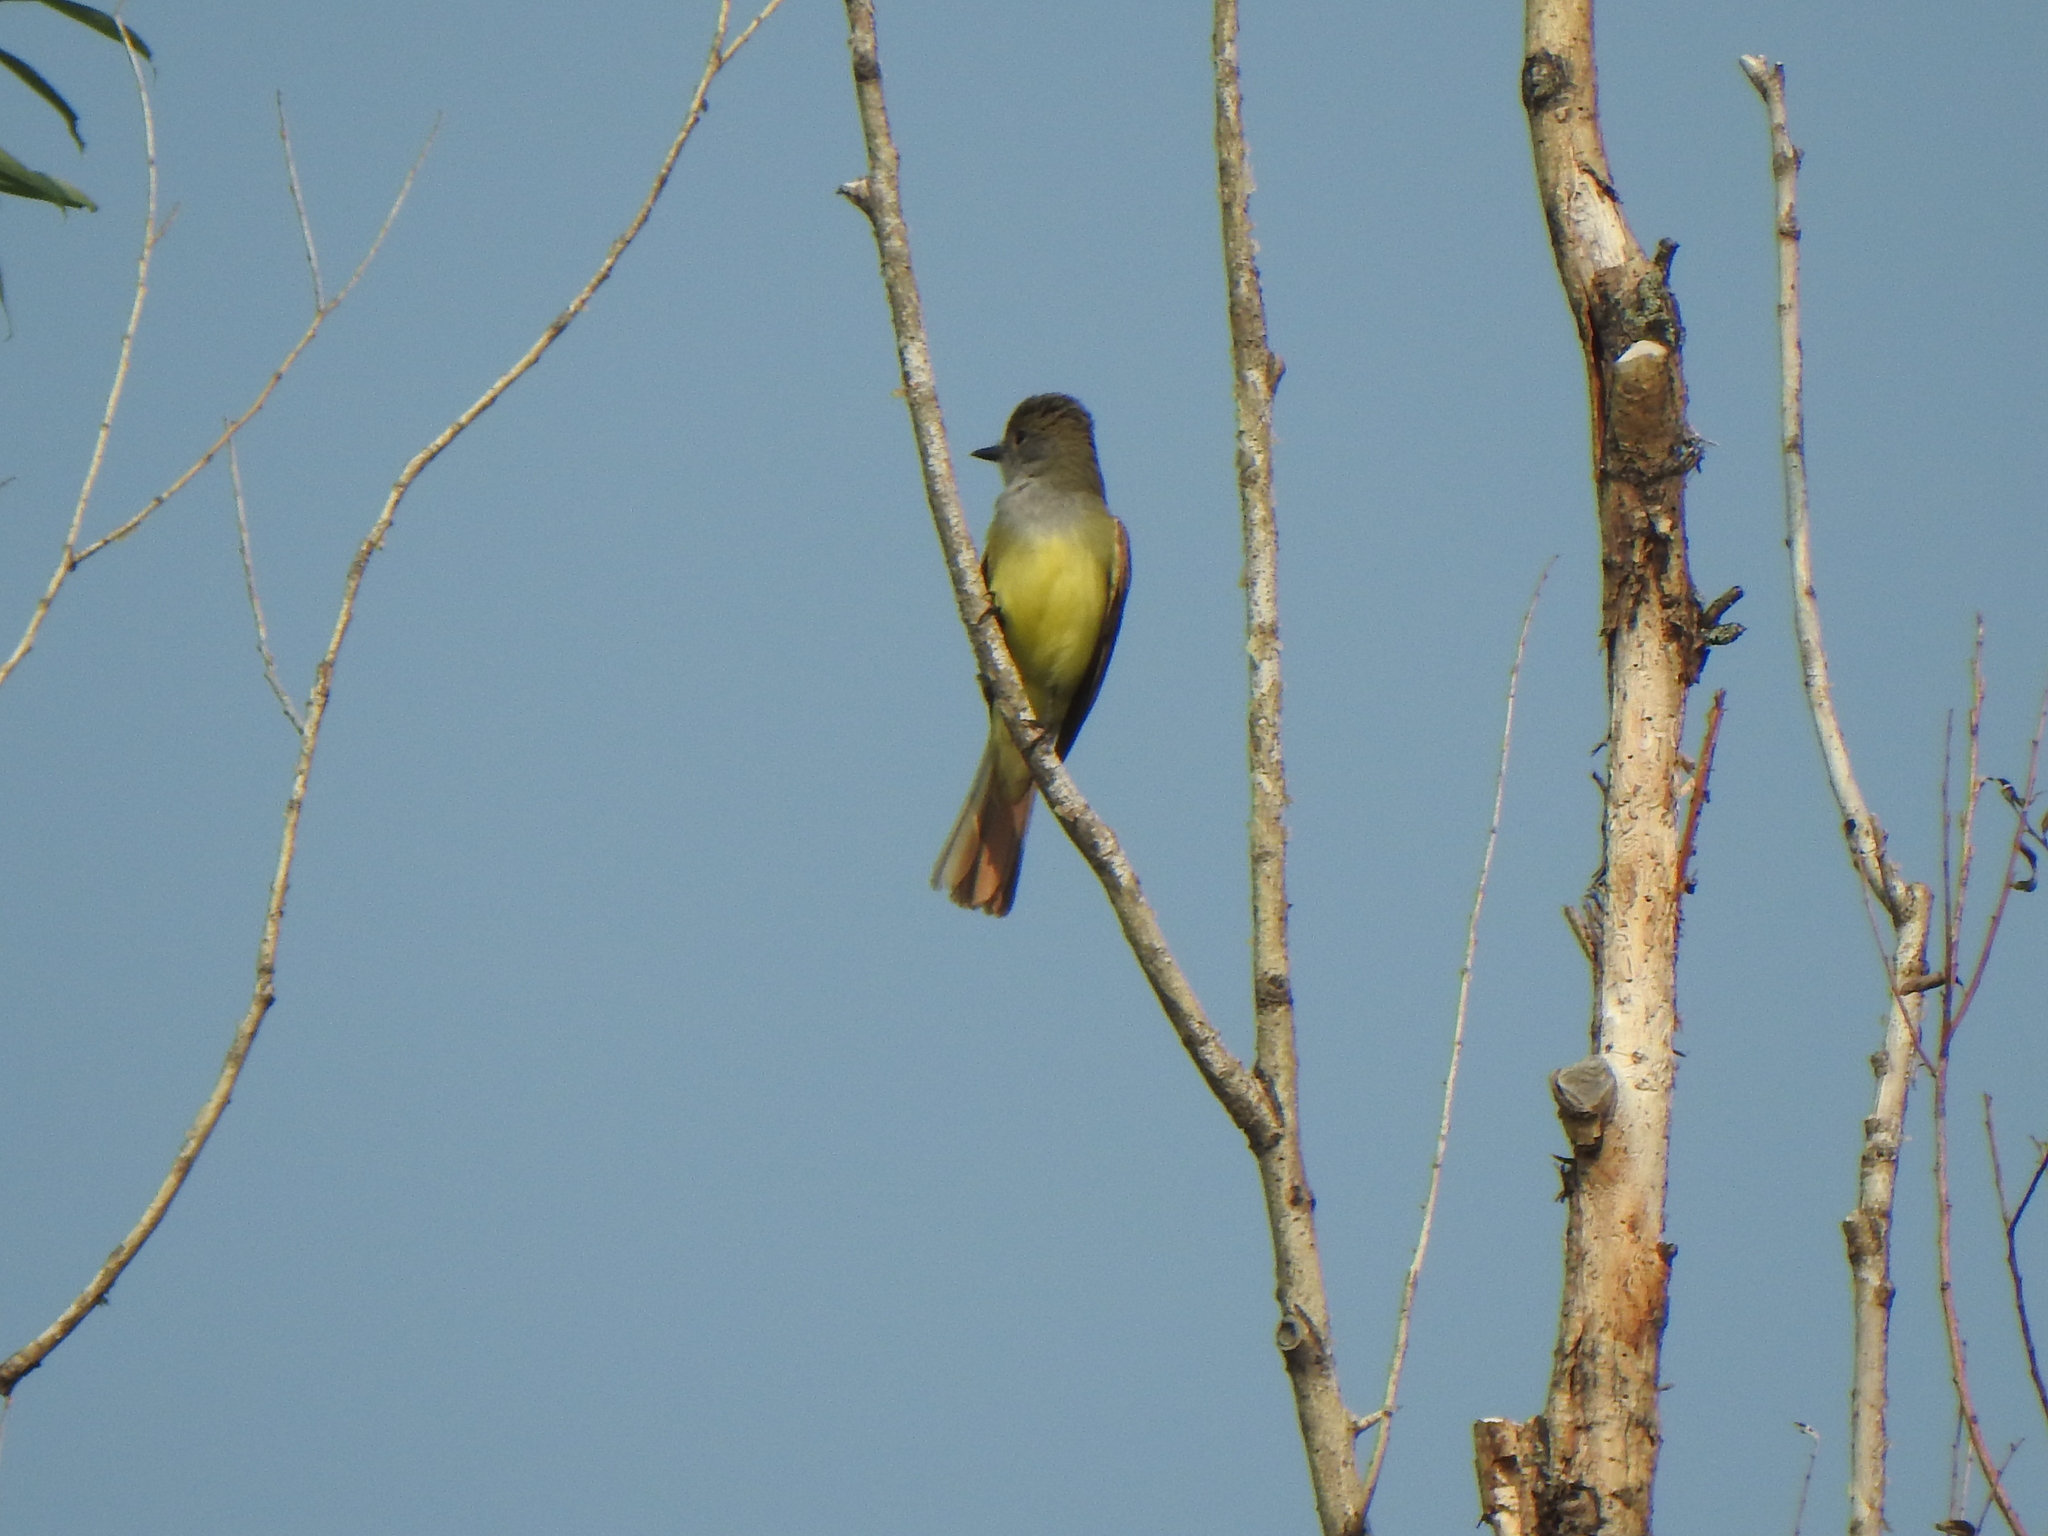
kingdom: Animalia
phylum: Chordata
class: Aves
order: Passeriformes
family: Tyrannidae
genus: Myiarchus
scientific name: Myiarchus crinitus
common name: Great crested flycatcher
